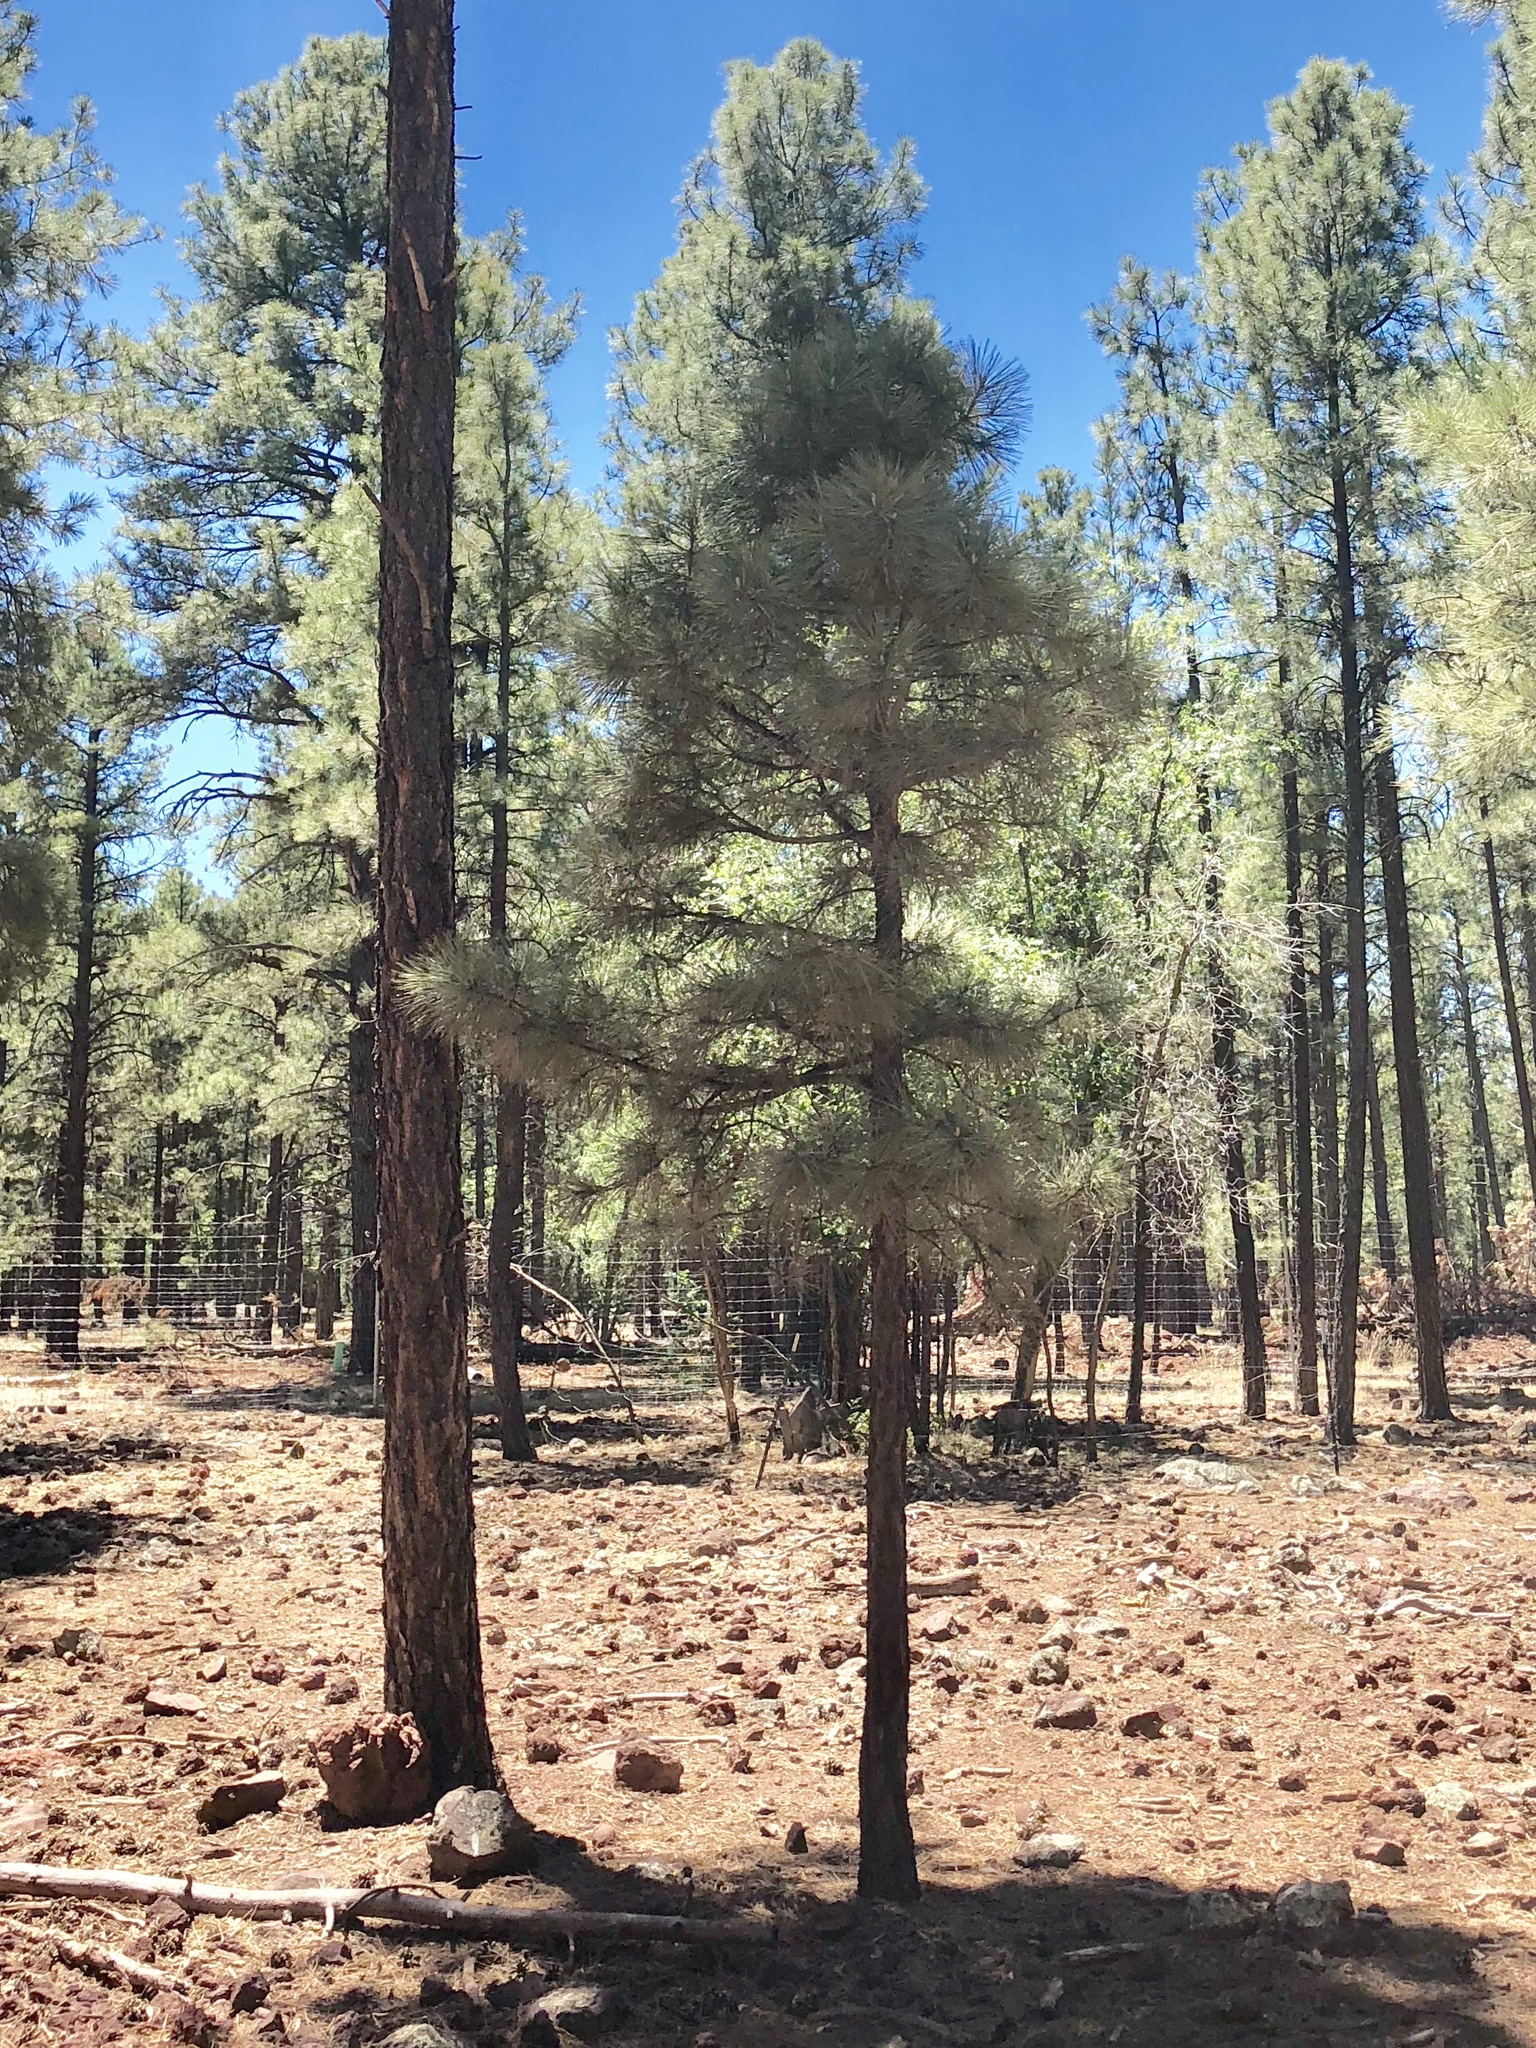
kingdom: Plantae
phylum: Tracheophyta
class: Pinopsida
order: Pinales
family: Pinaceae
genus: Pinus
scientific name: Pinus ponderosa
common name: Western yellow-pine
